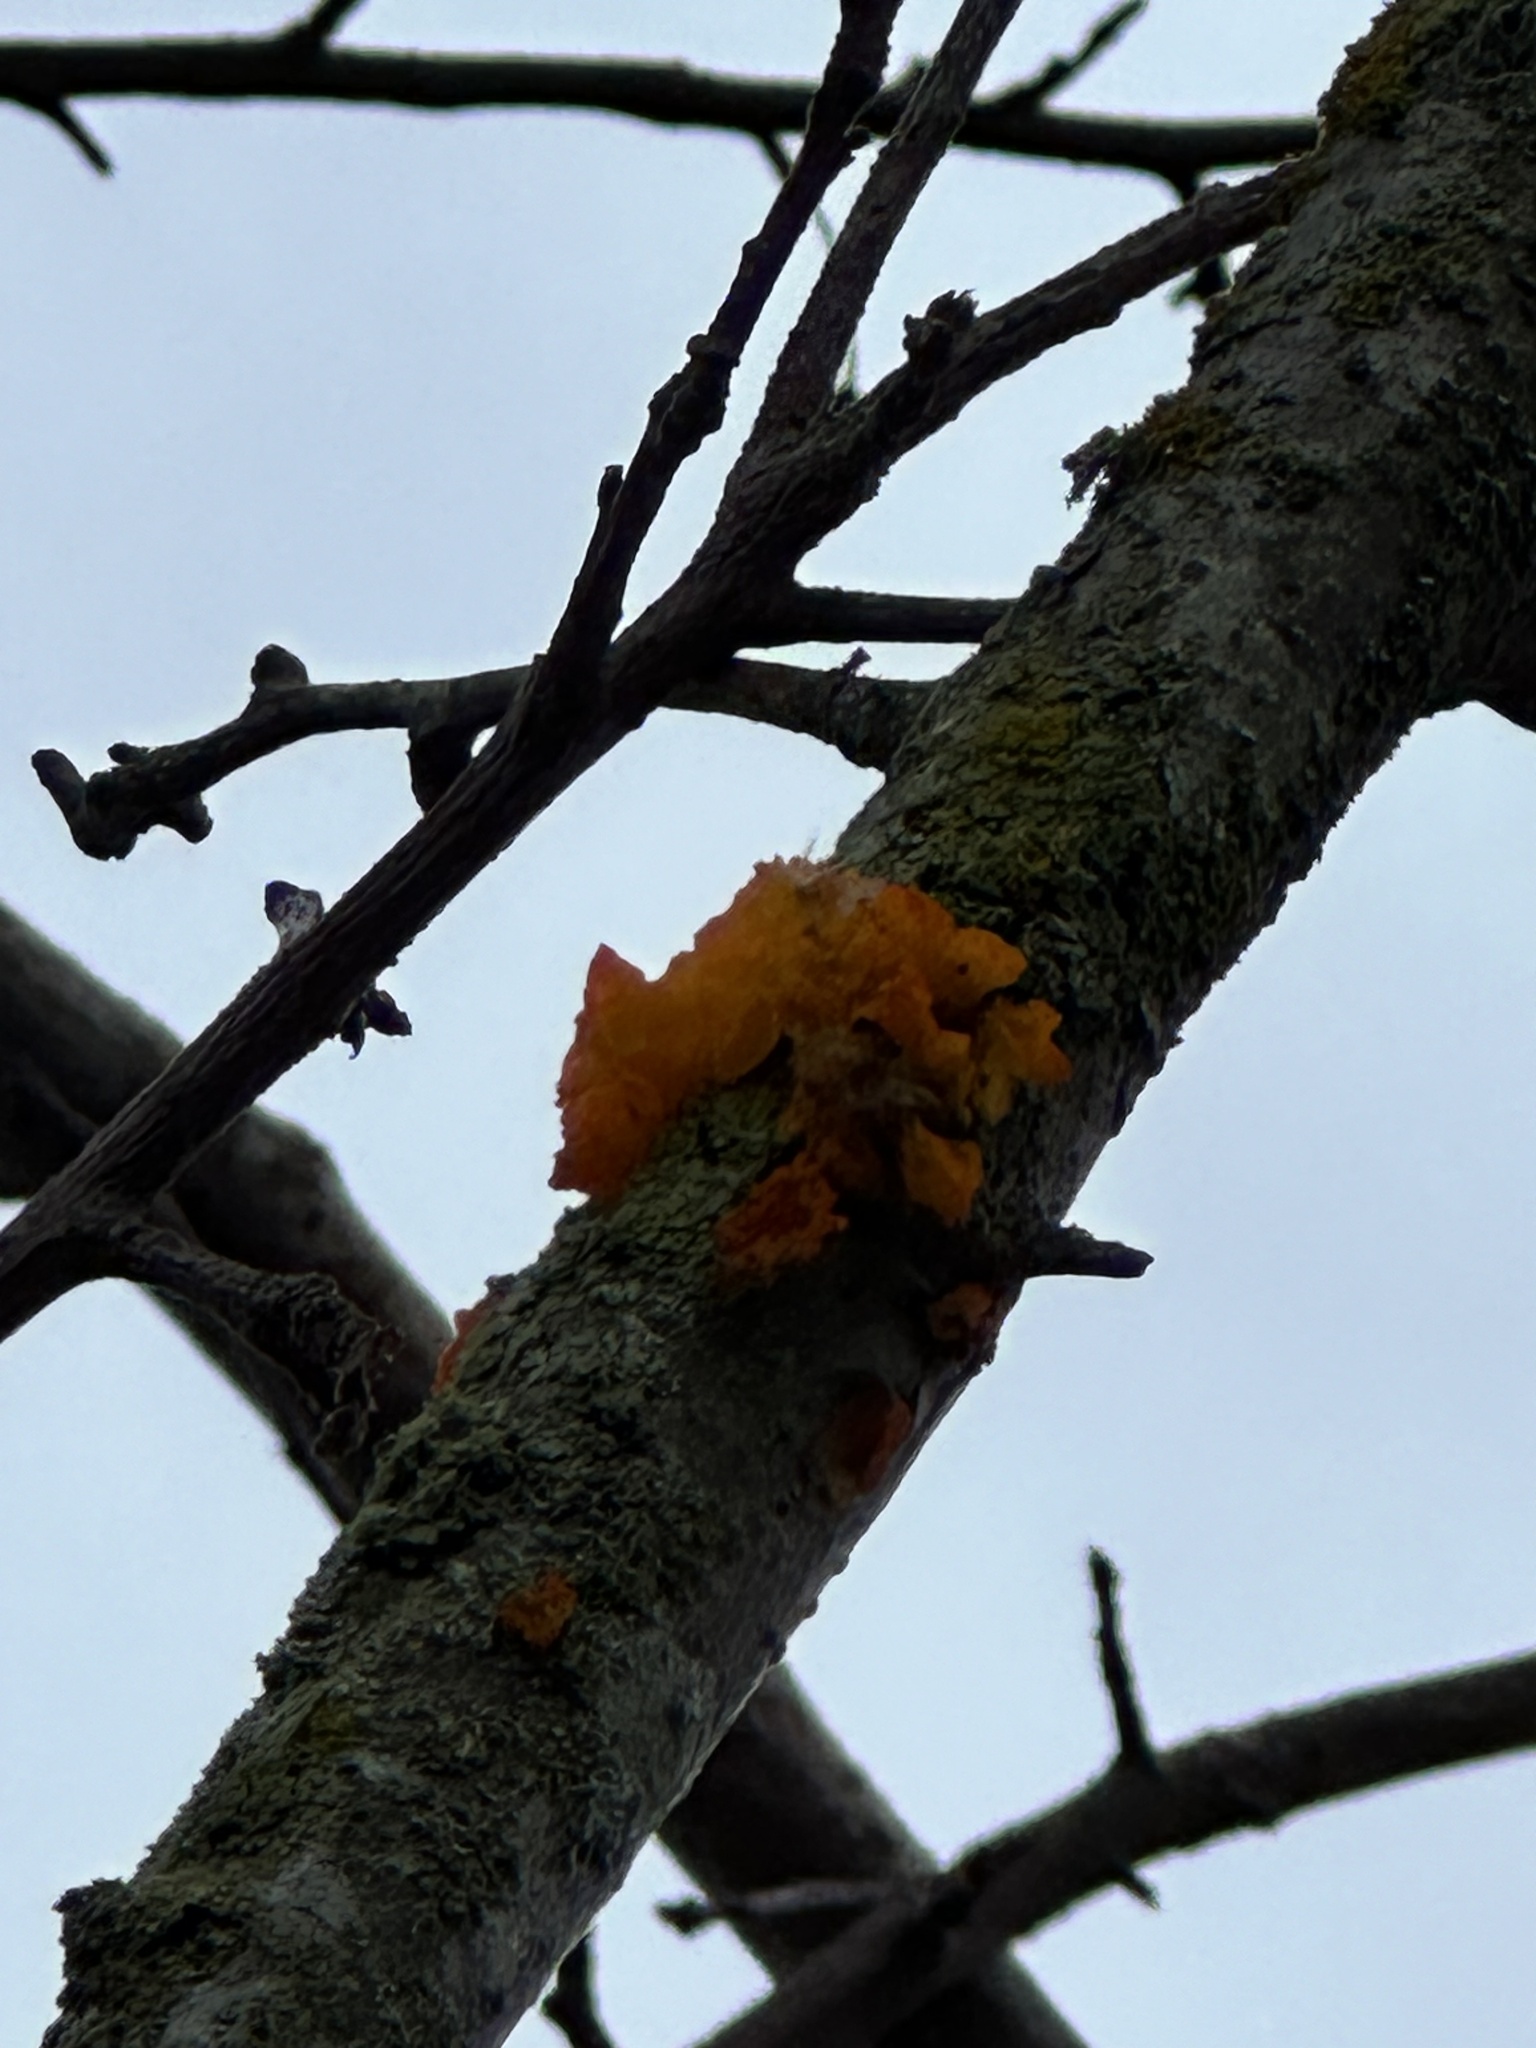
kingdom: Fungi
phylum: Basidiomycota
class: Tremellomycetes
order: Tremellales
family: Tremellaceae
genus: Tremella
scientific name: Tremella mesenterica
